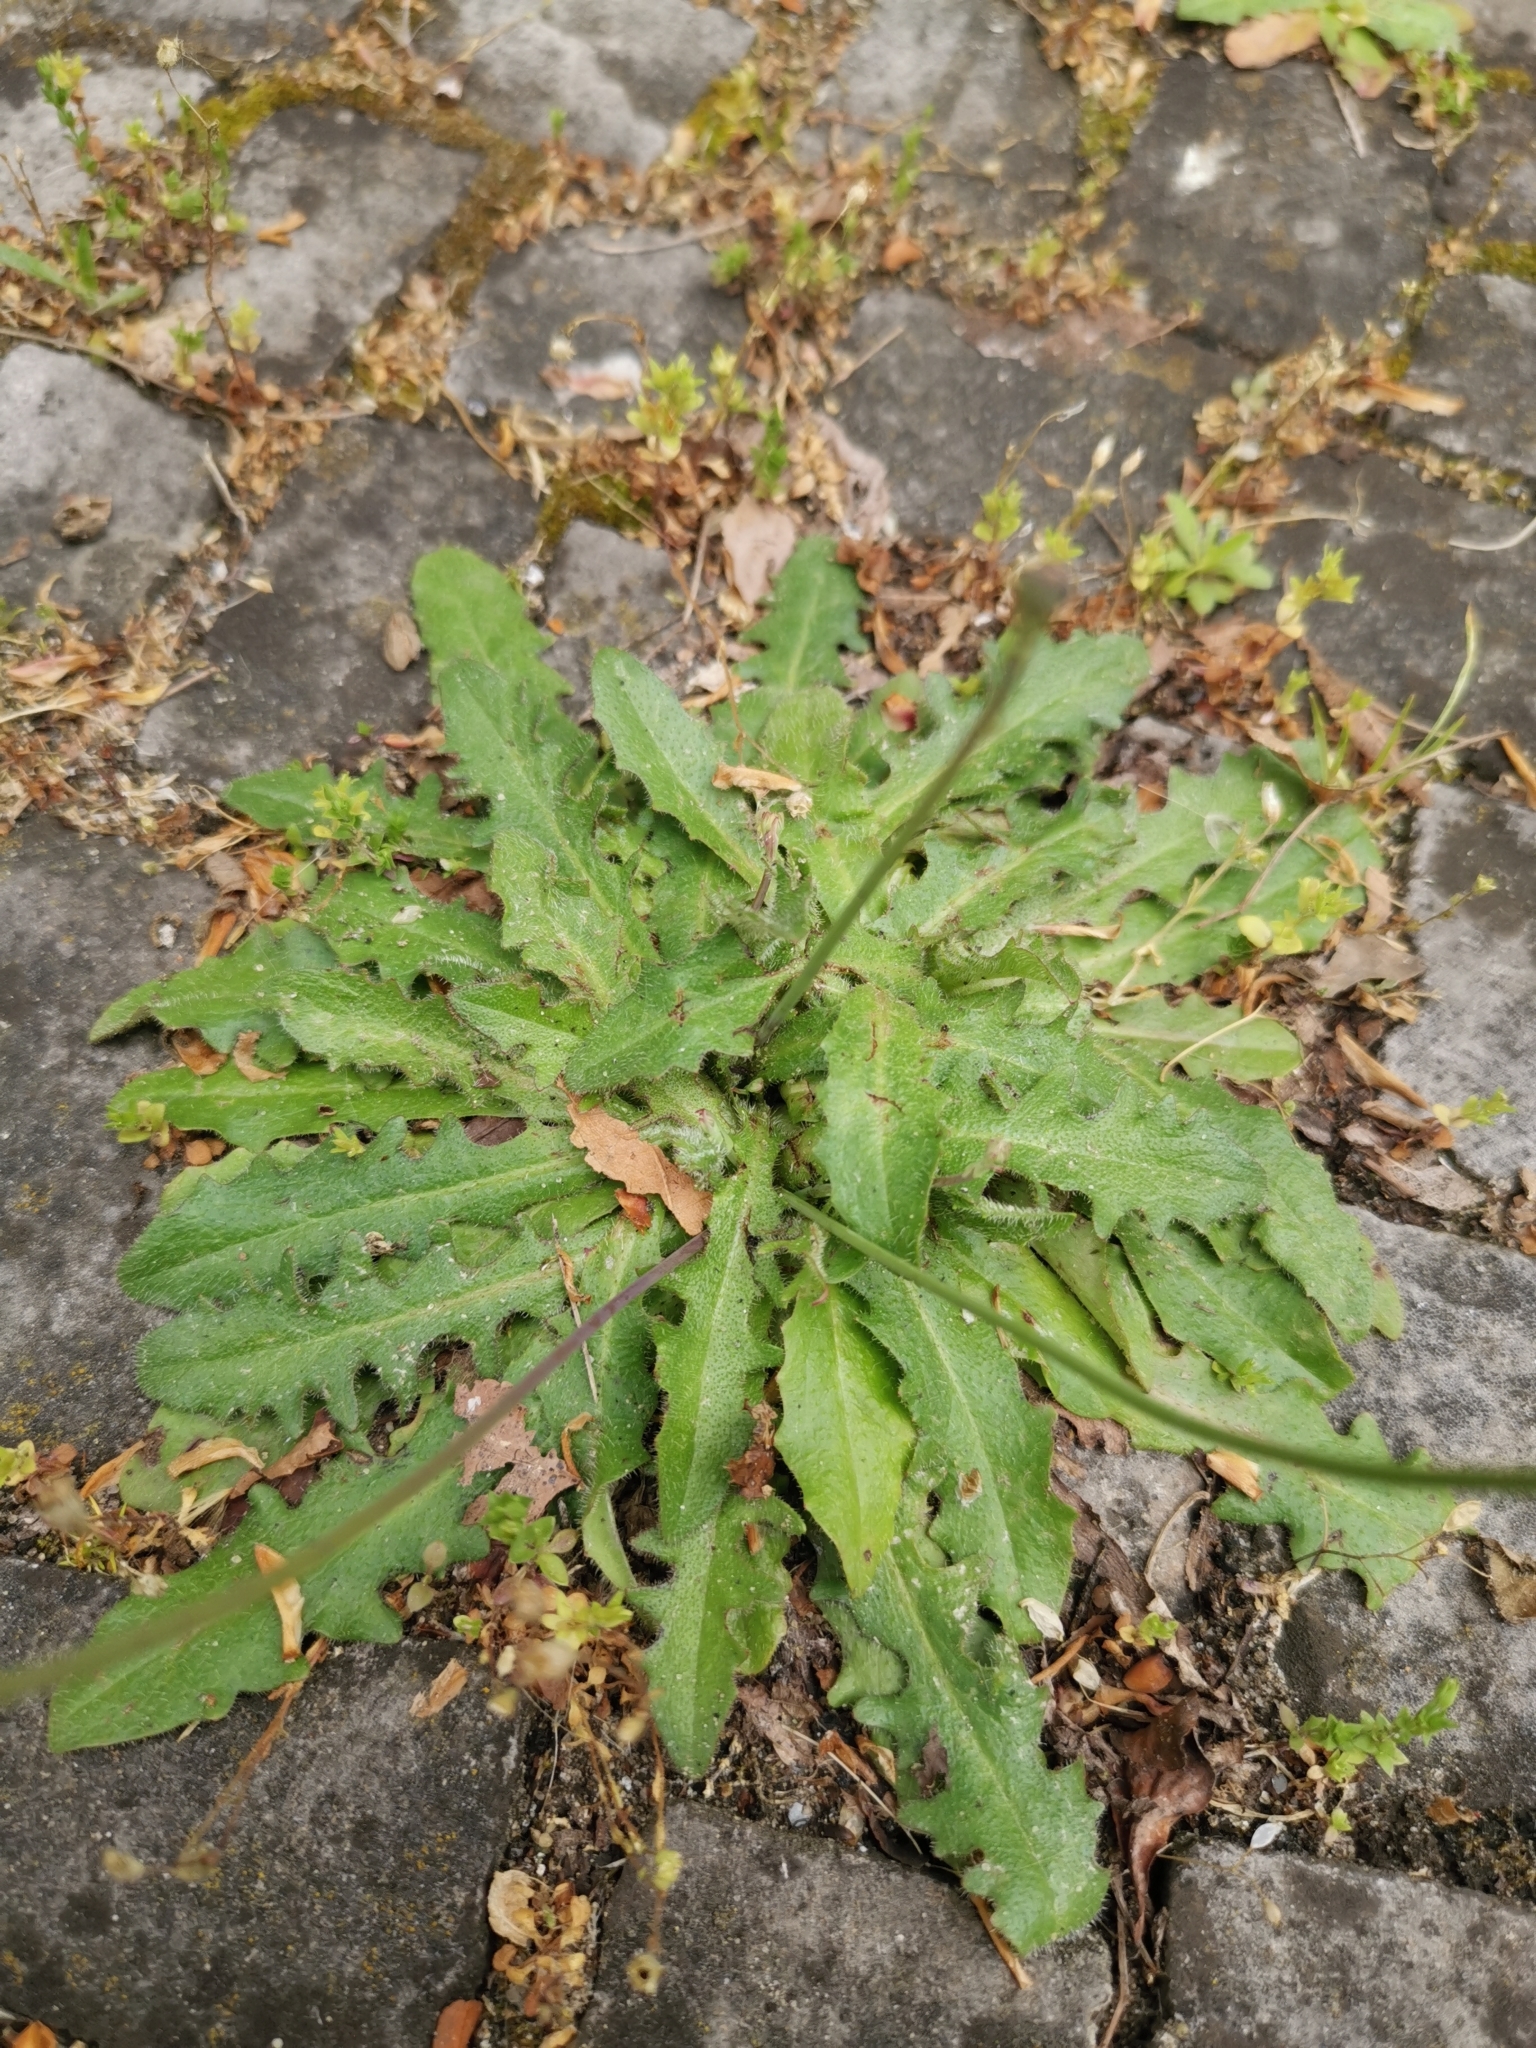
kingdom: Plantae
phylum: Tracheophyta
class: Magnoliopsida
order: Asterales
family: Asteraceae
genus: Hypochaeris
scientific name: Hypochaeris radicata
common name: Flatweed
